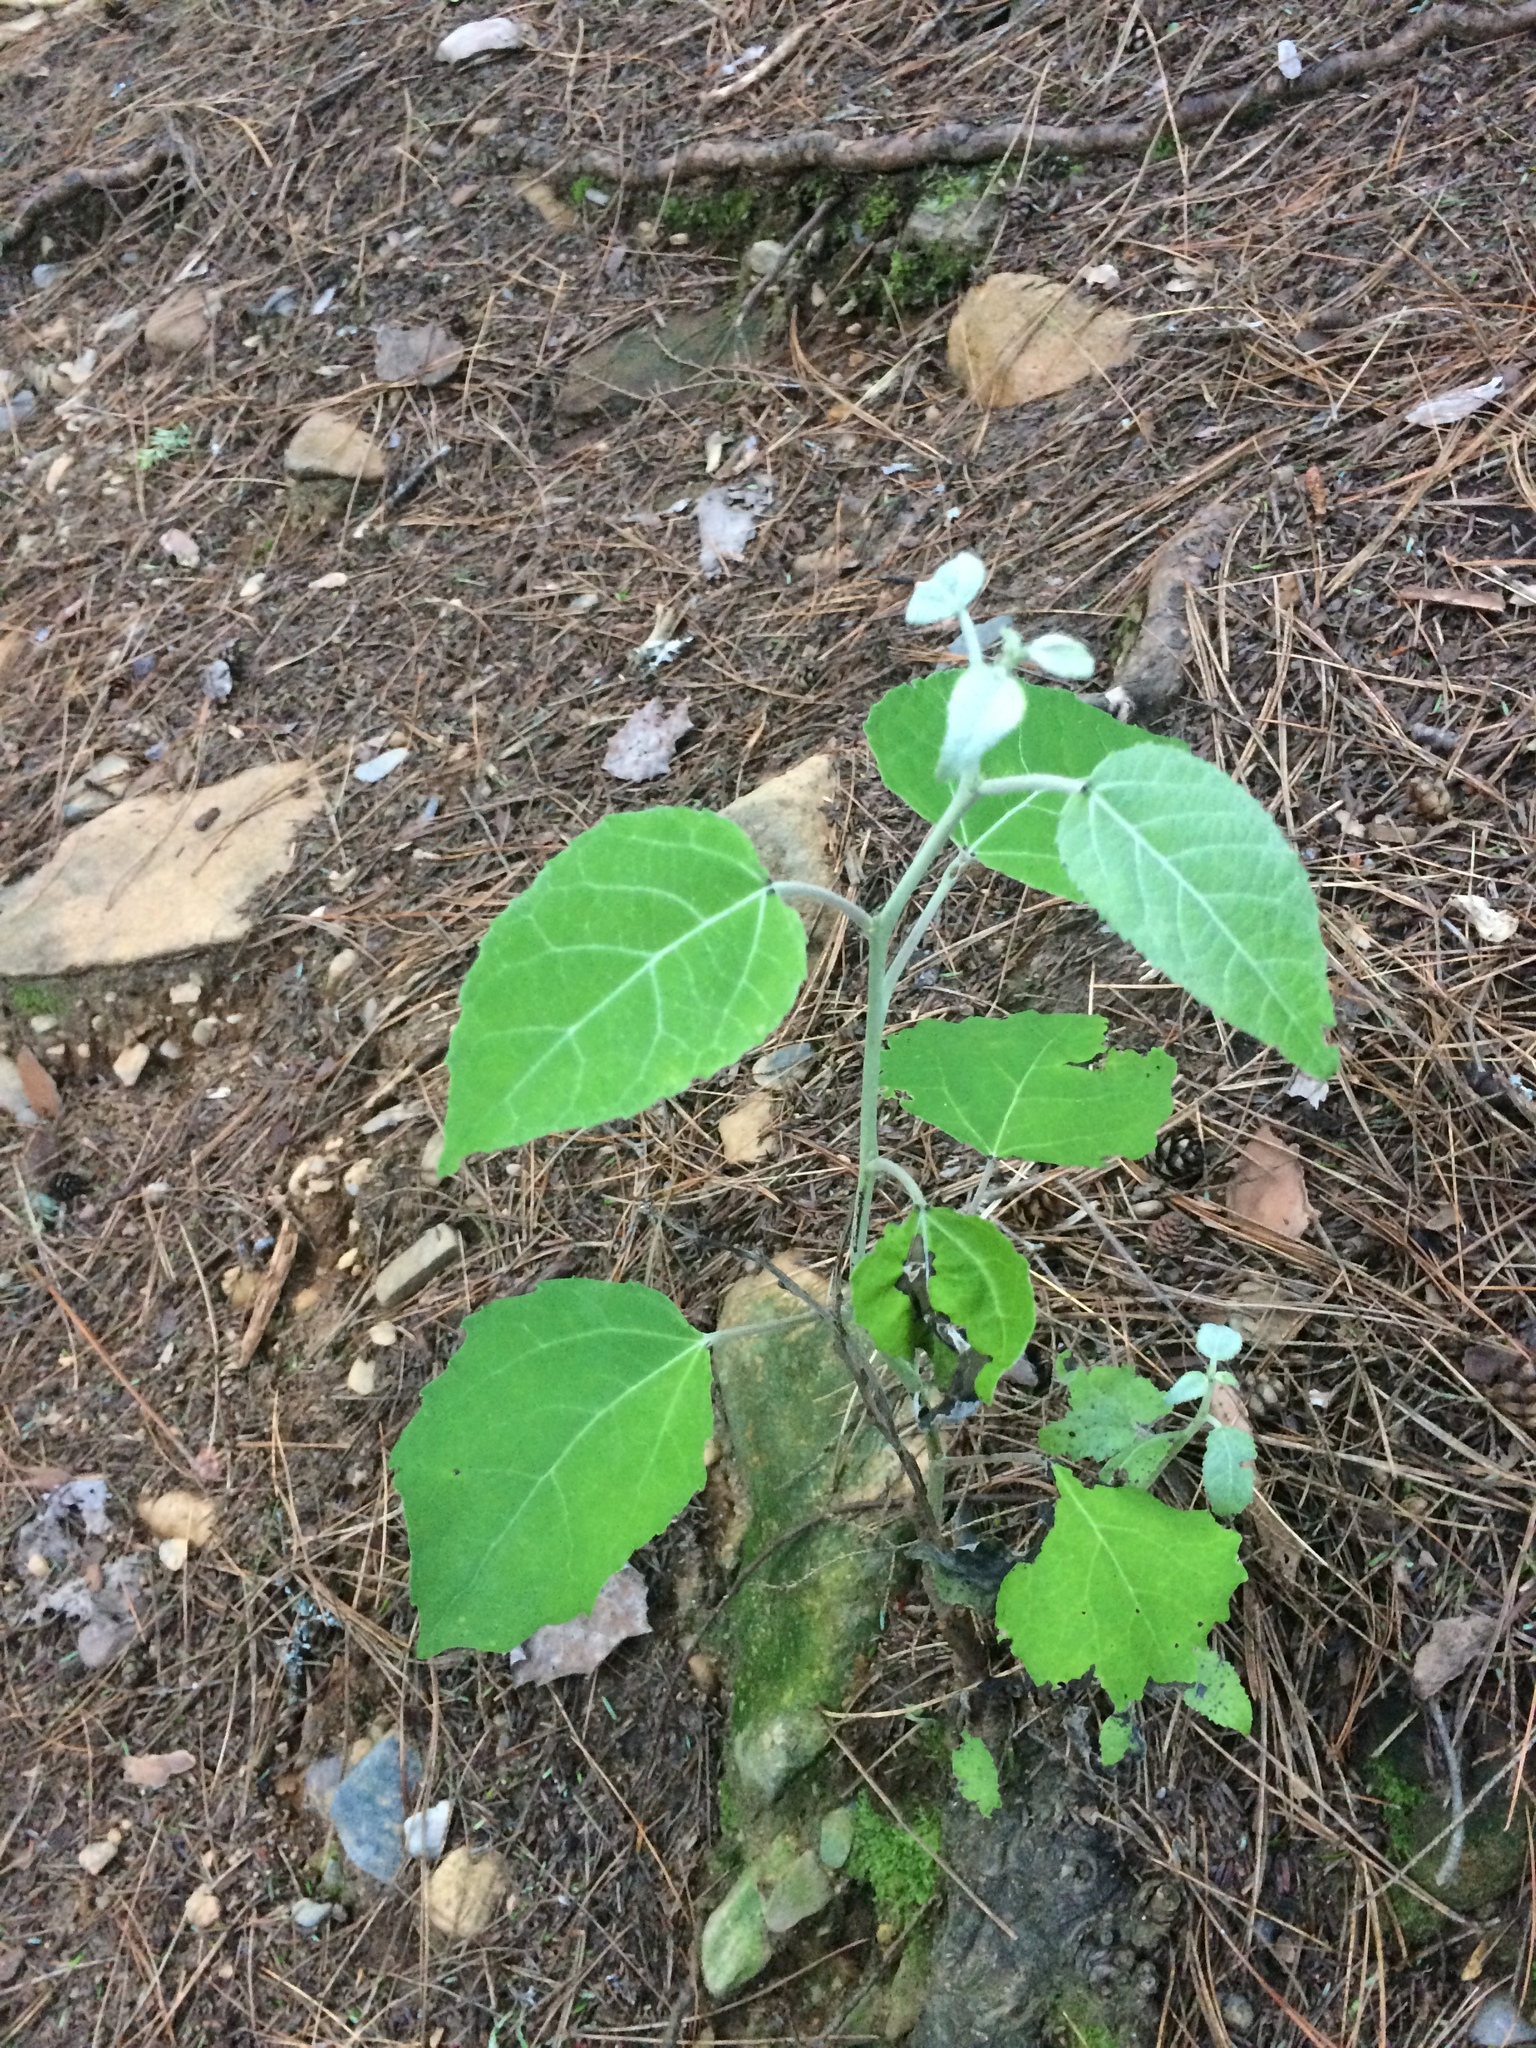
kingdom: Plantae
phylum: Tracheophyta
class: Magnoliopsida
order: Malpighiales
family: Salicaceae
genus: Populus
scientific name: Populus grandidentata
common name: Bigtooth aspen
